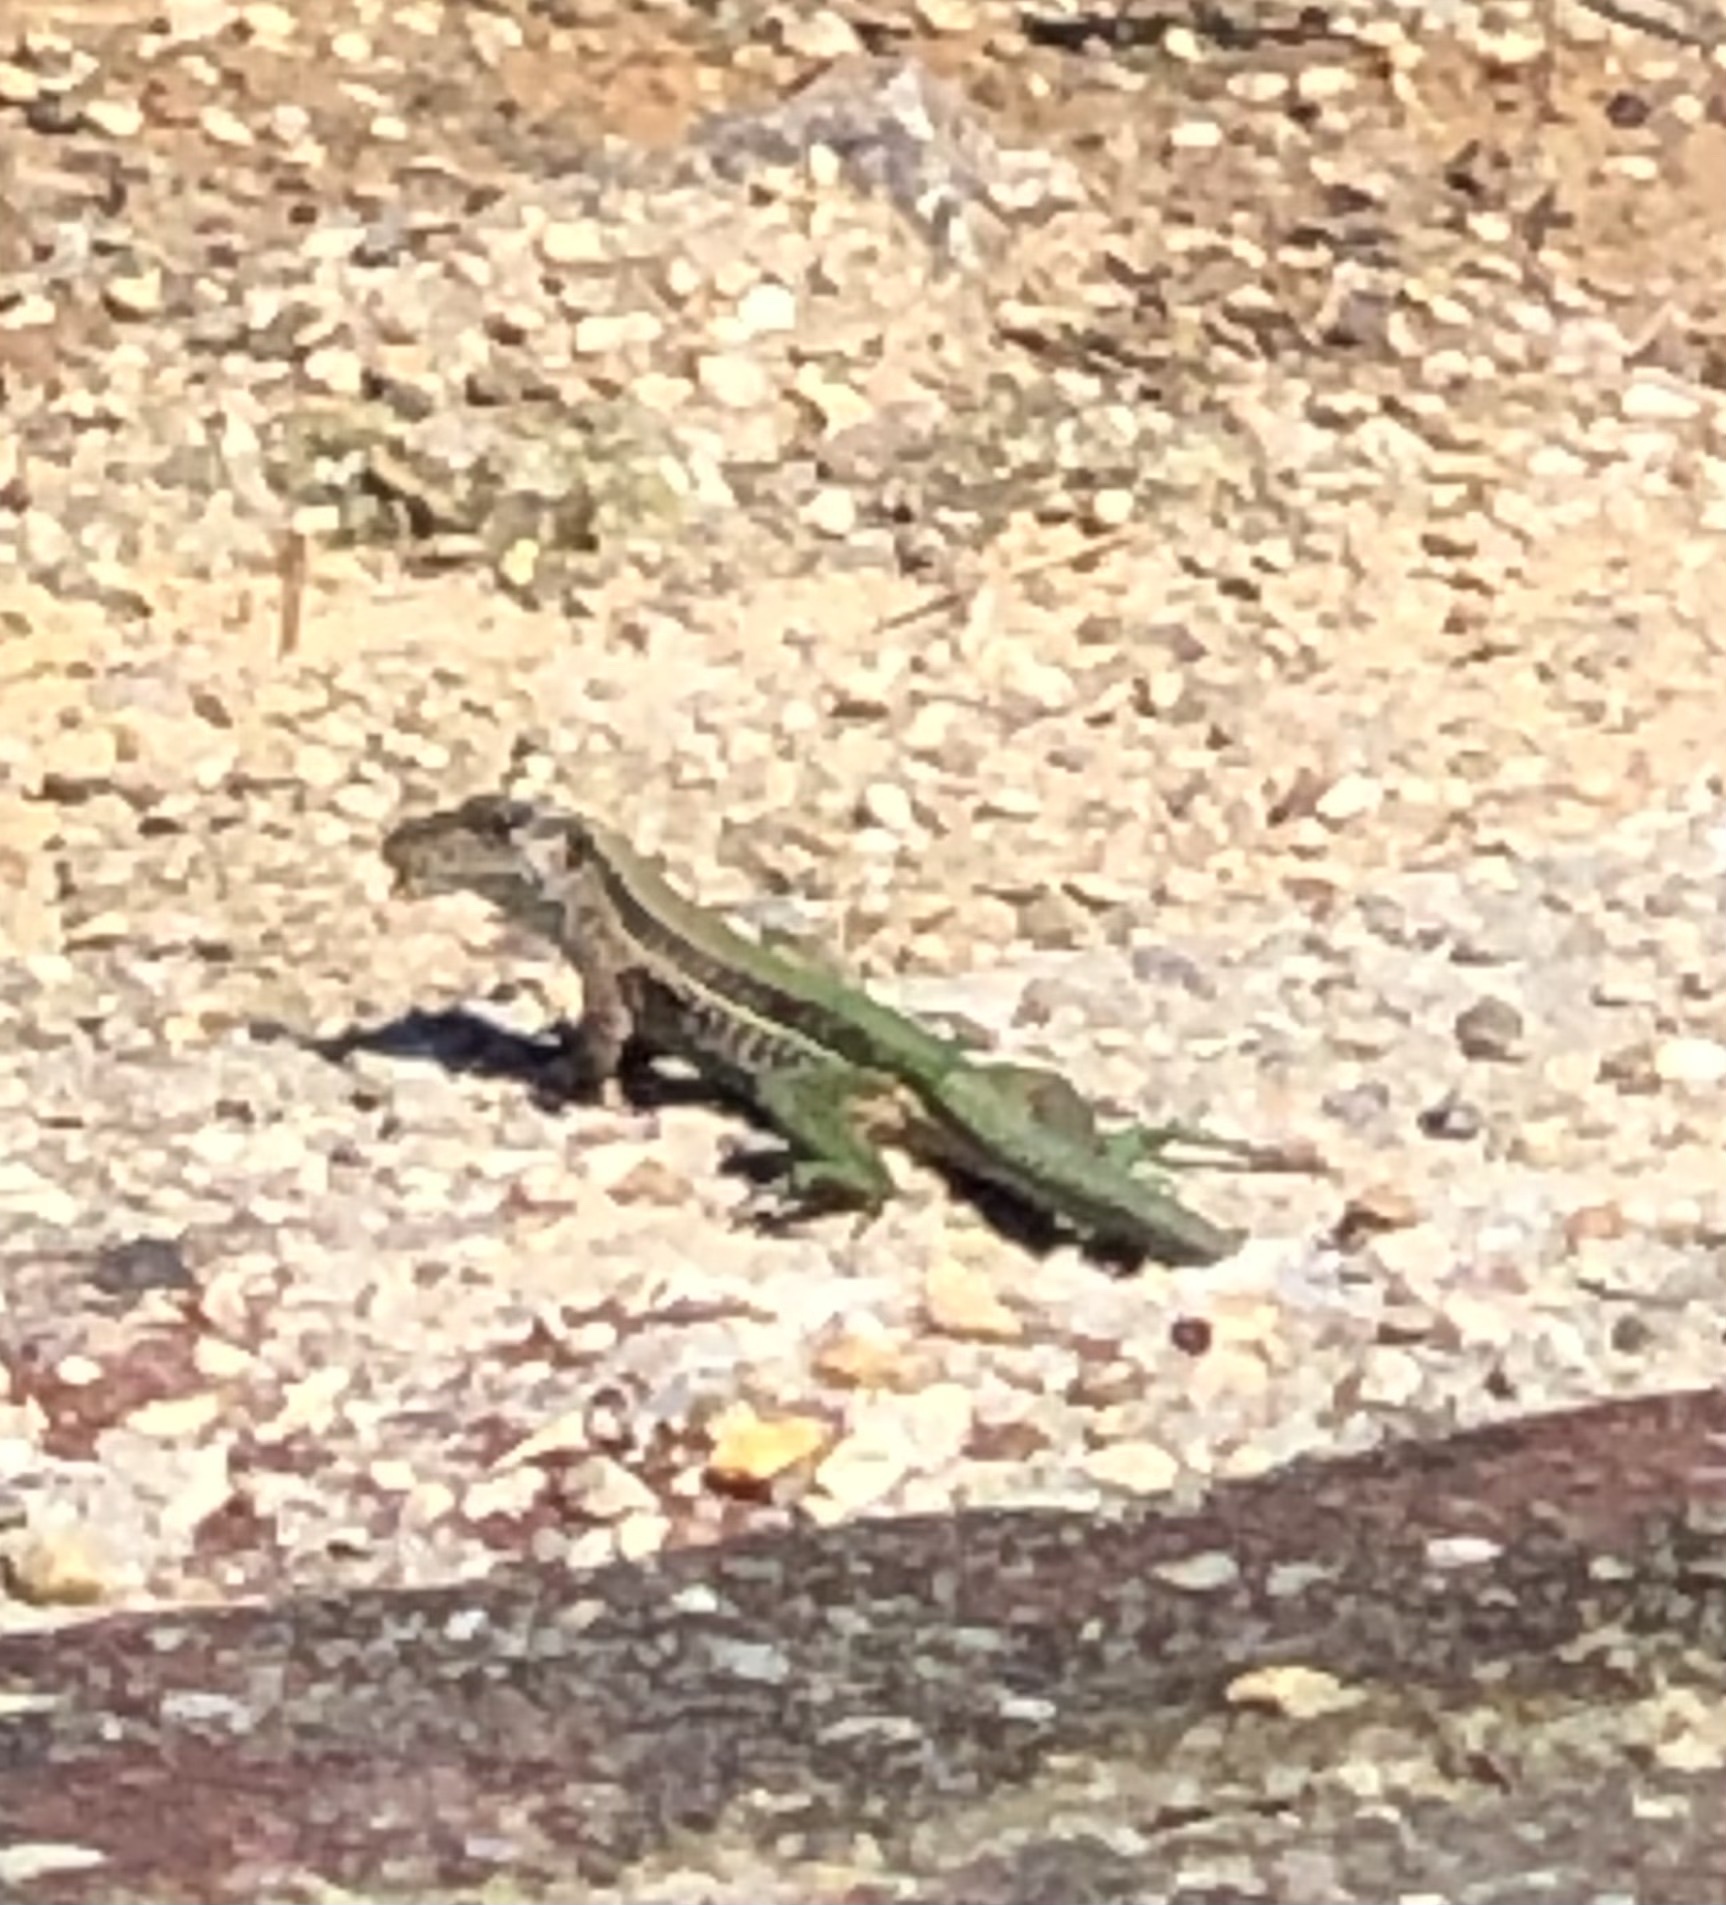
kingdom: Animalia
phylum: Chordata
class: Squamata
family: Teiidae
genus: Ameiva
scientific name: Ameiva ameiva
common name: Giant ameiva
